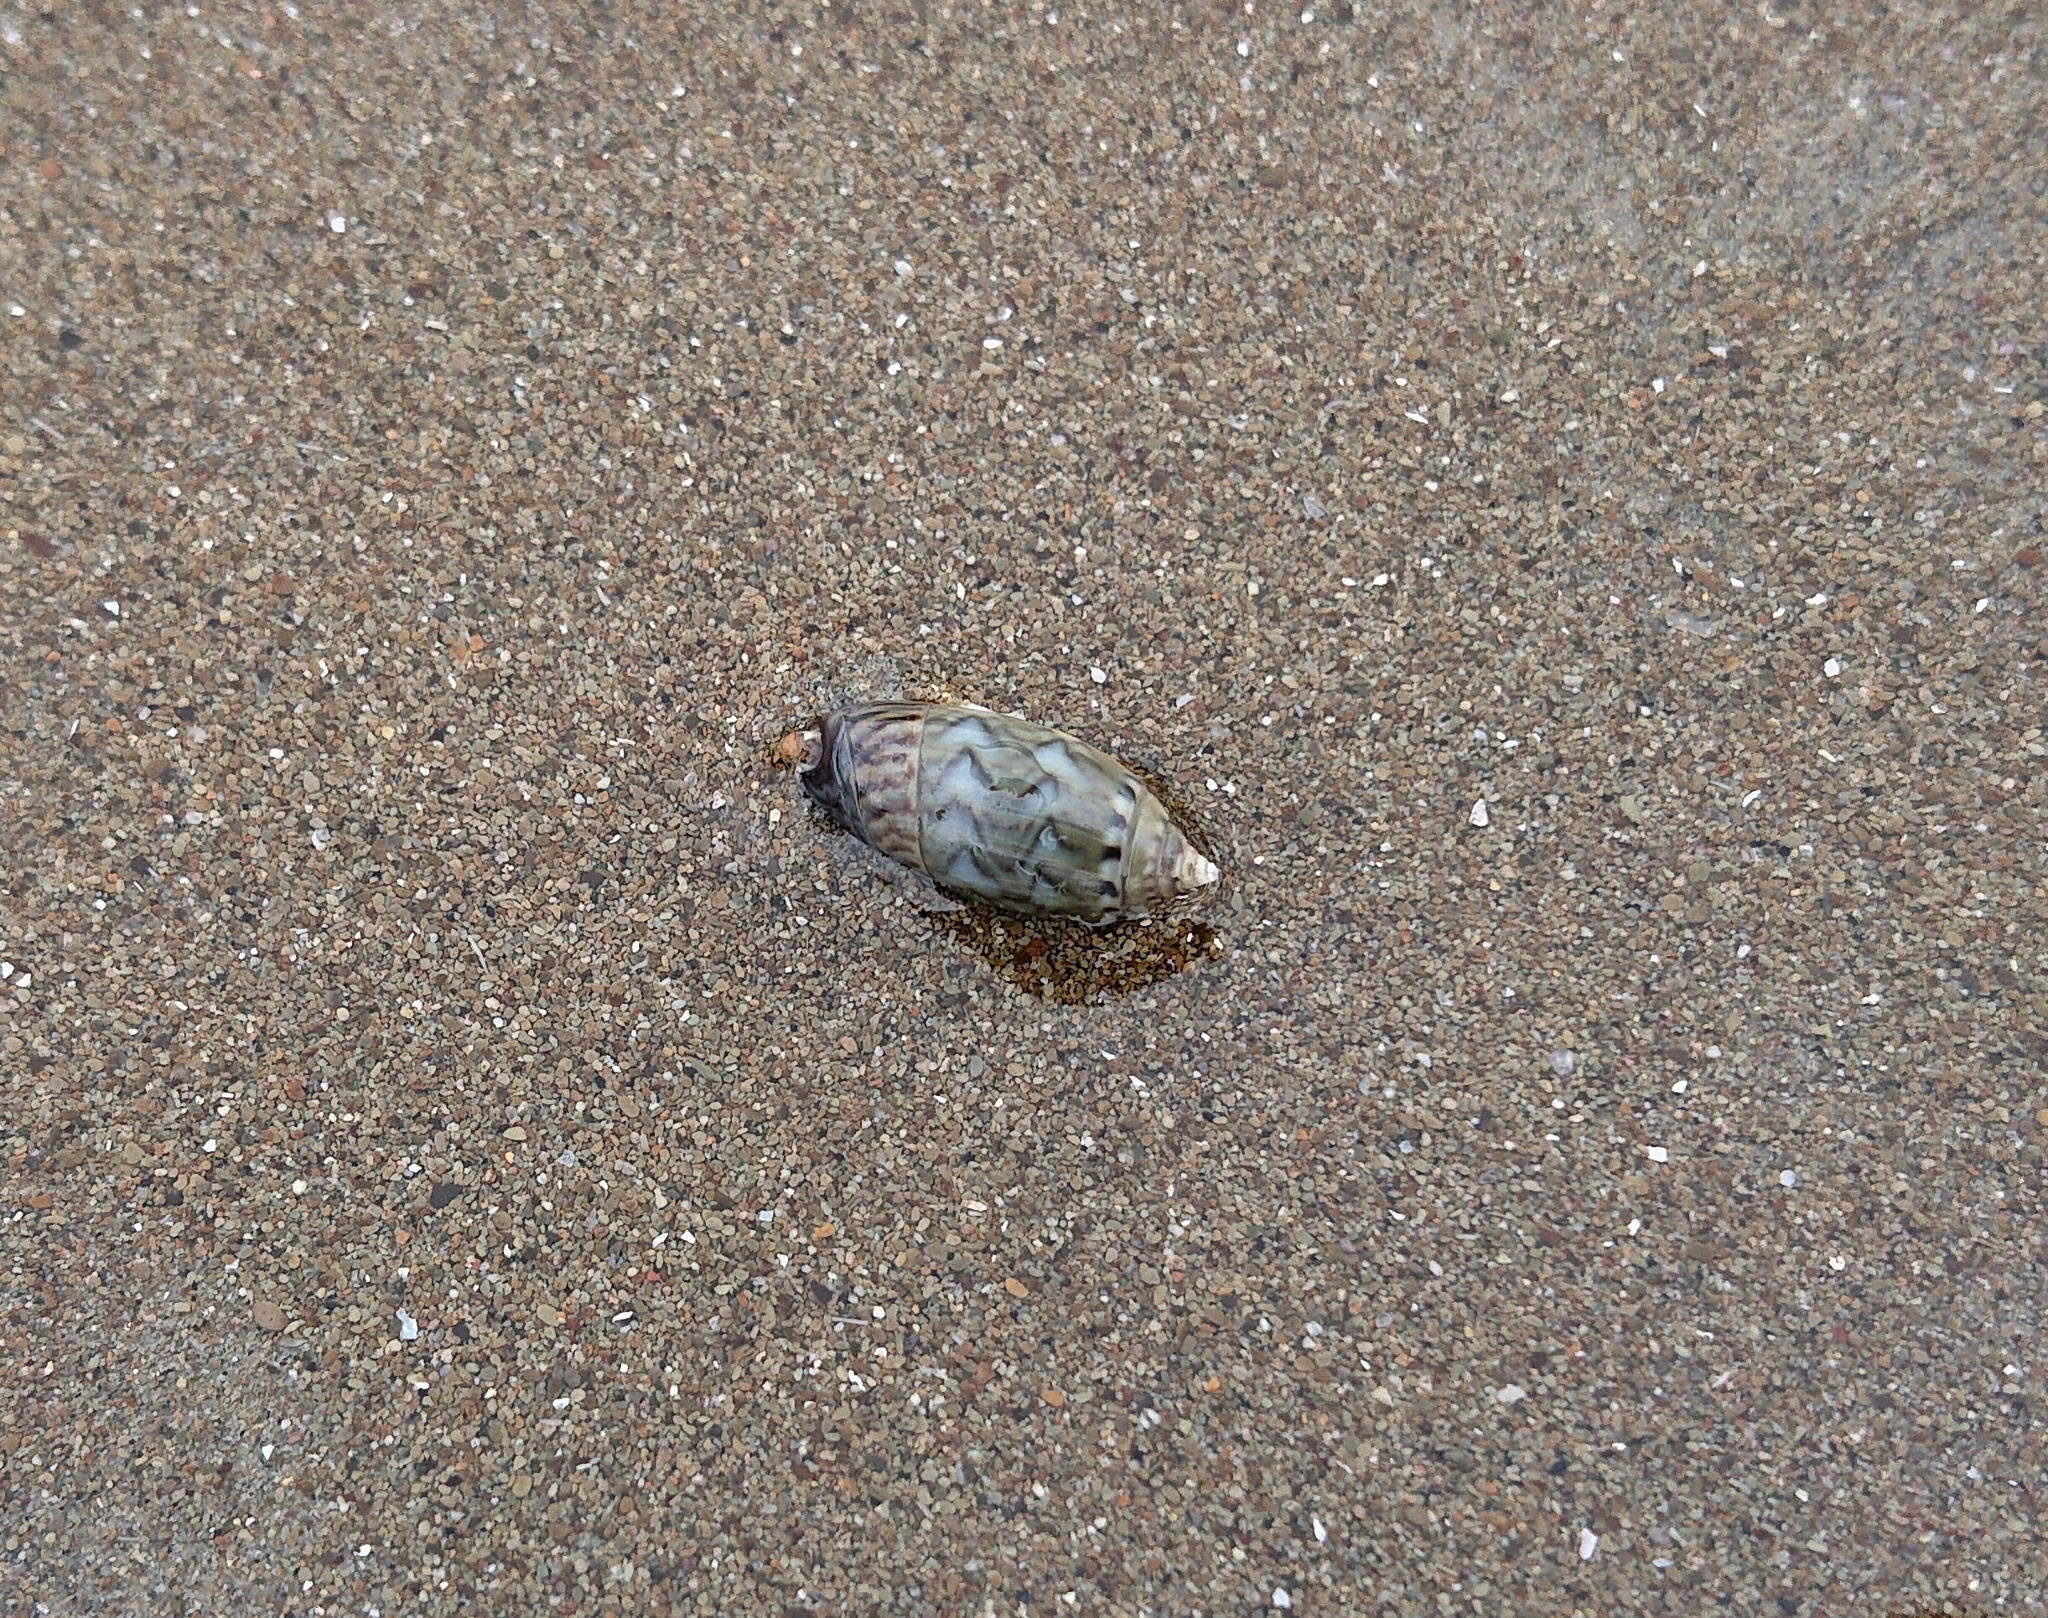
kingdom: Animalia
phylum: Mollusca
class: Gastropoda
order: Neogastropoda
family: Olividae
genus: Oliva
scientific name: Oliva undatella
